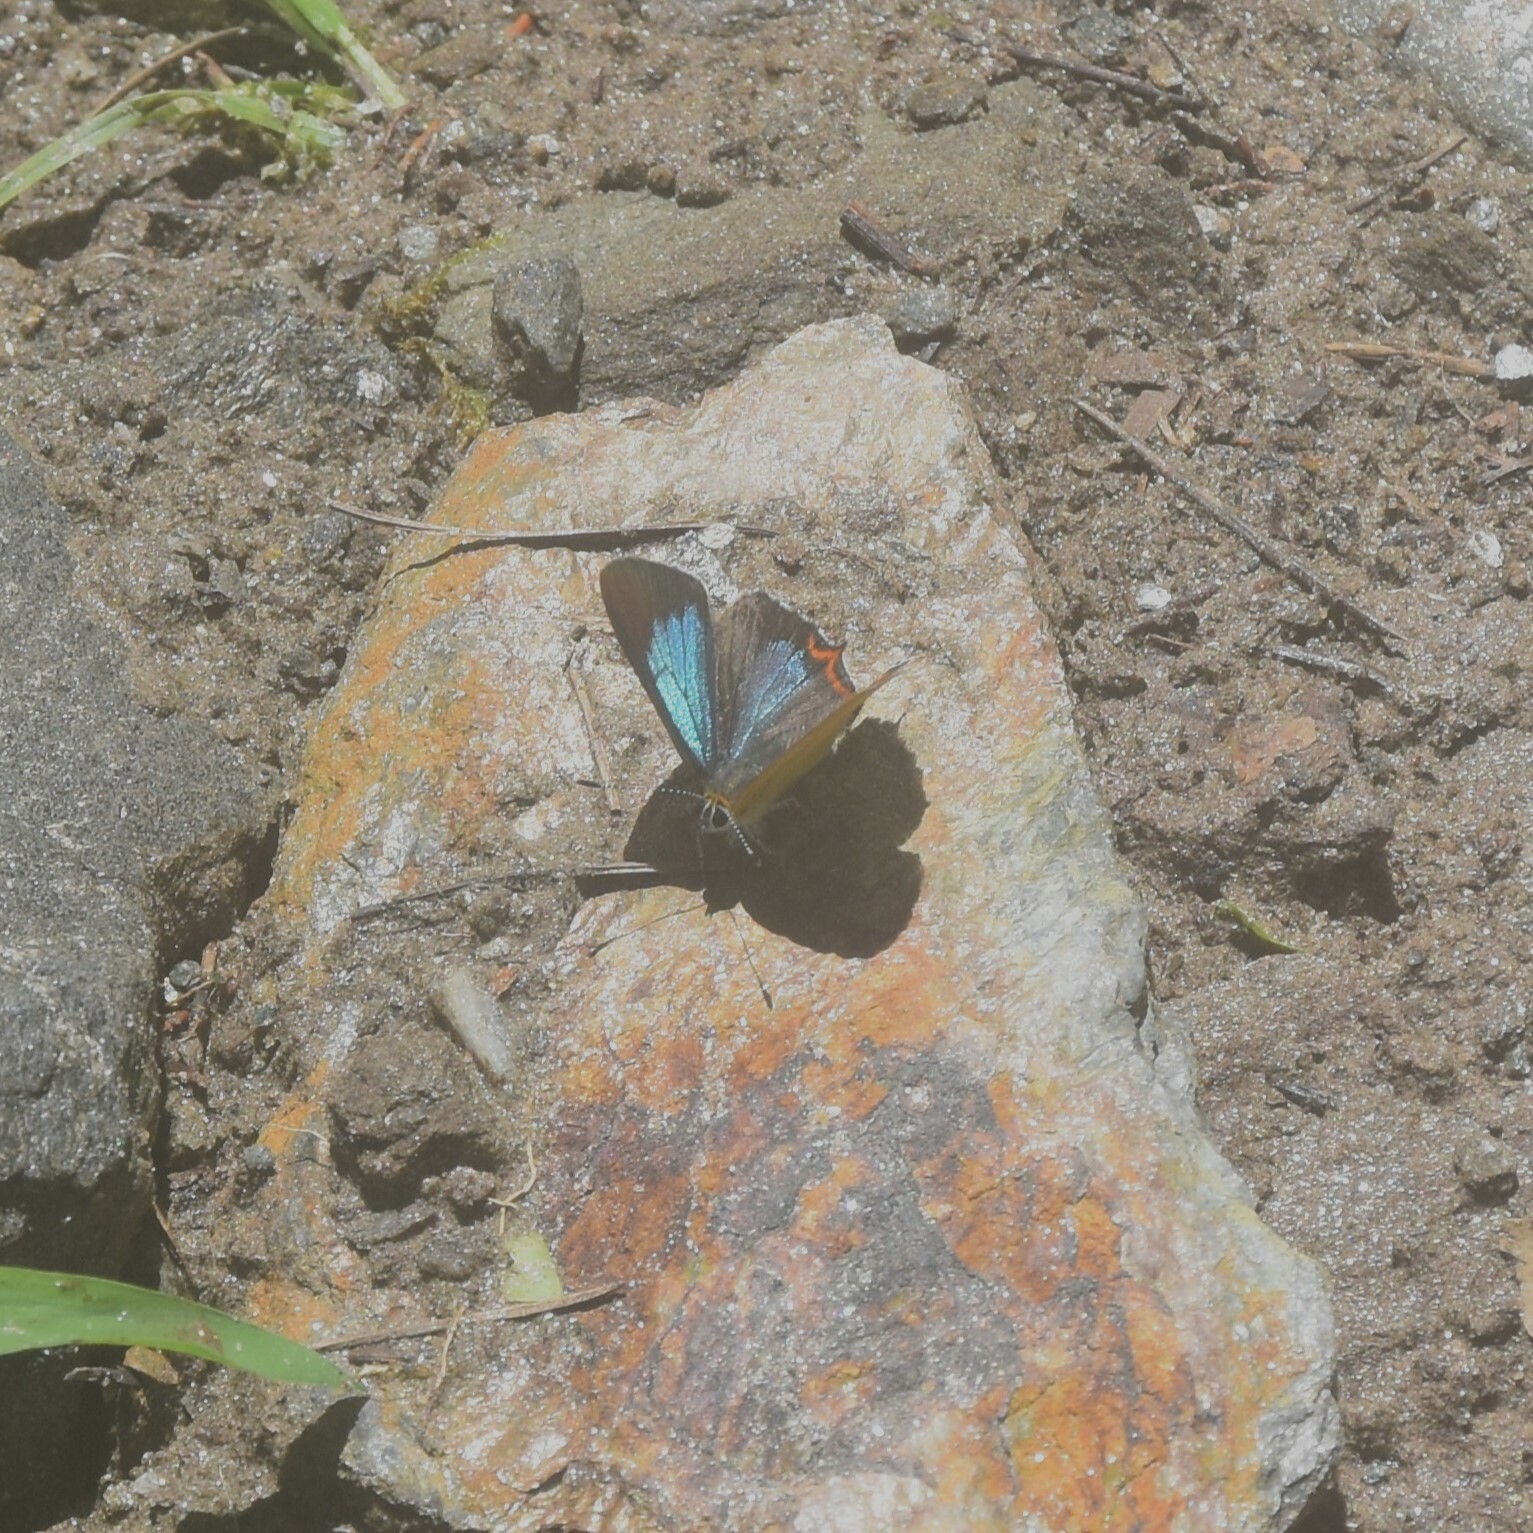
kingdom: Animalia
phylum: Arthropoda
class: Insecta
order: Lepidoptera
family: Lycaenidae
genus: Heliophorus
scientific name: Heliophorus
